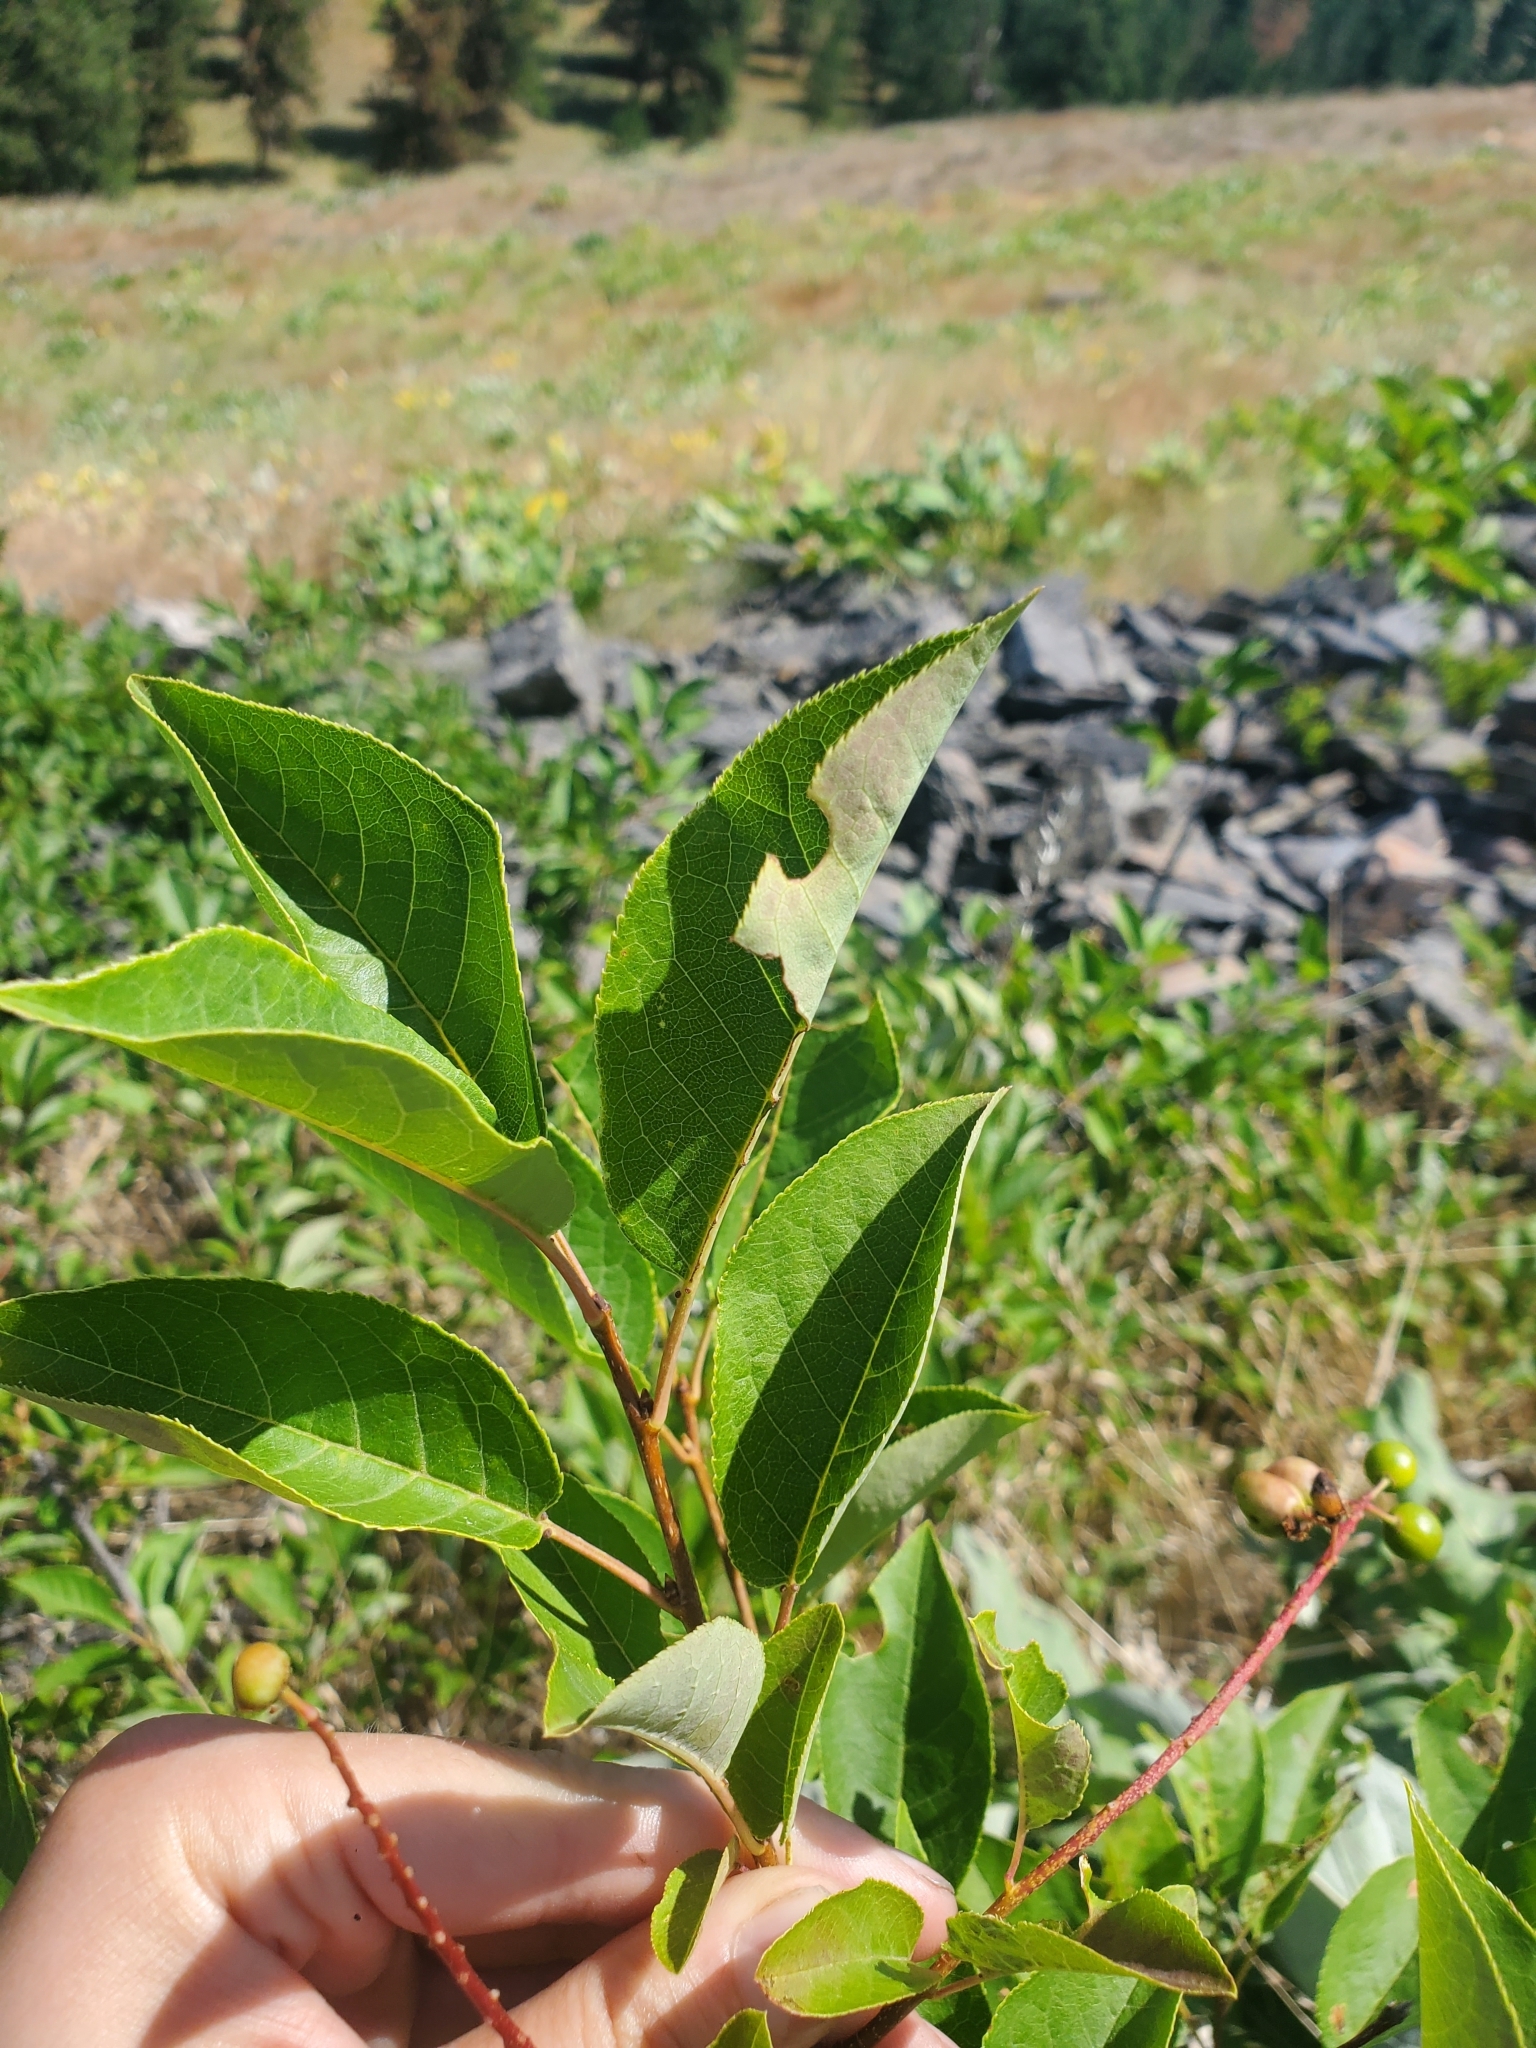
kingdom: Plantae
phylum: Tracheophyta
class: Magnoliopsida
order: Rosales
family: Rosaceae
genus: Prunus
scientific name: Prunus virginiana
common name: Chokecherry
